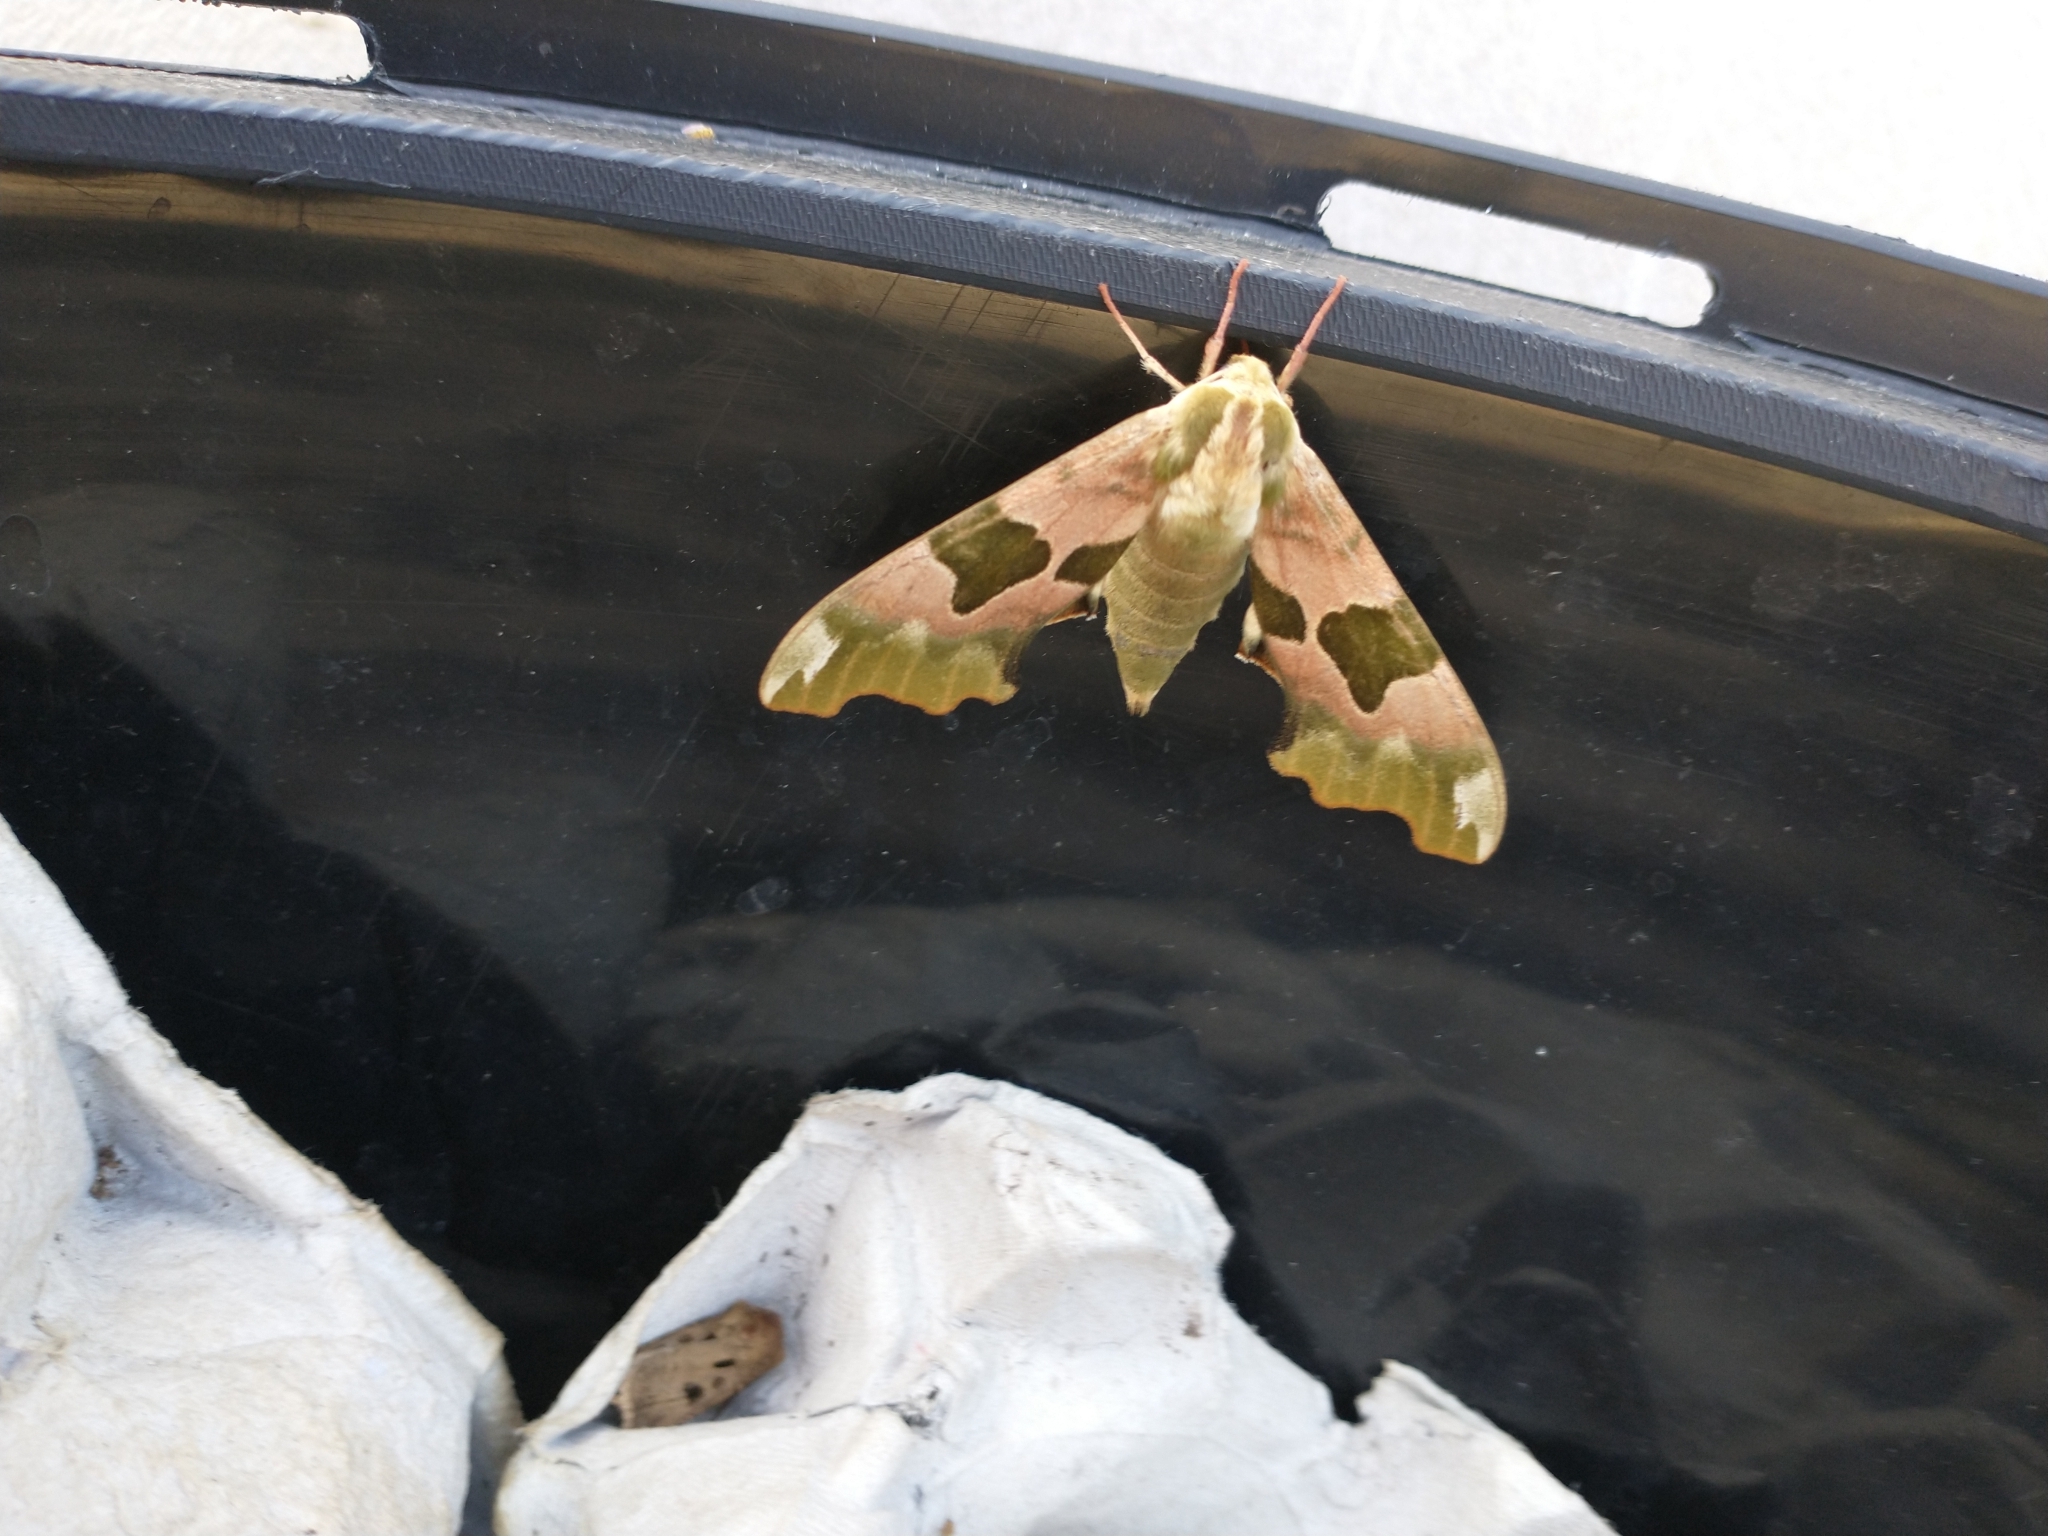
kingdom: Animalia
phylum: Arthropoda
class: Insecta
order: Lepidoptera
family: Sphingidae
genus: Mimas
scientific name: Mimas tiliae
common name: Lime hawk-moth
